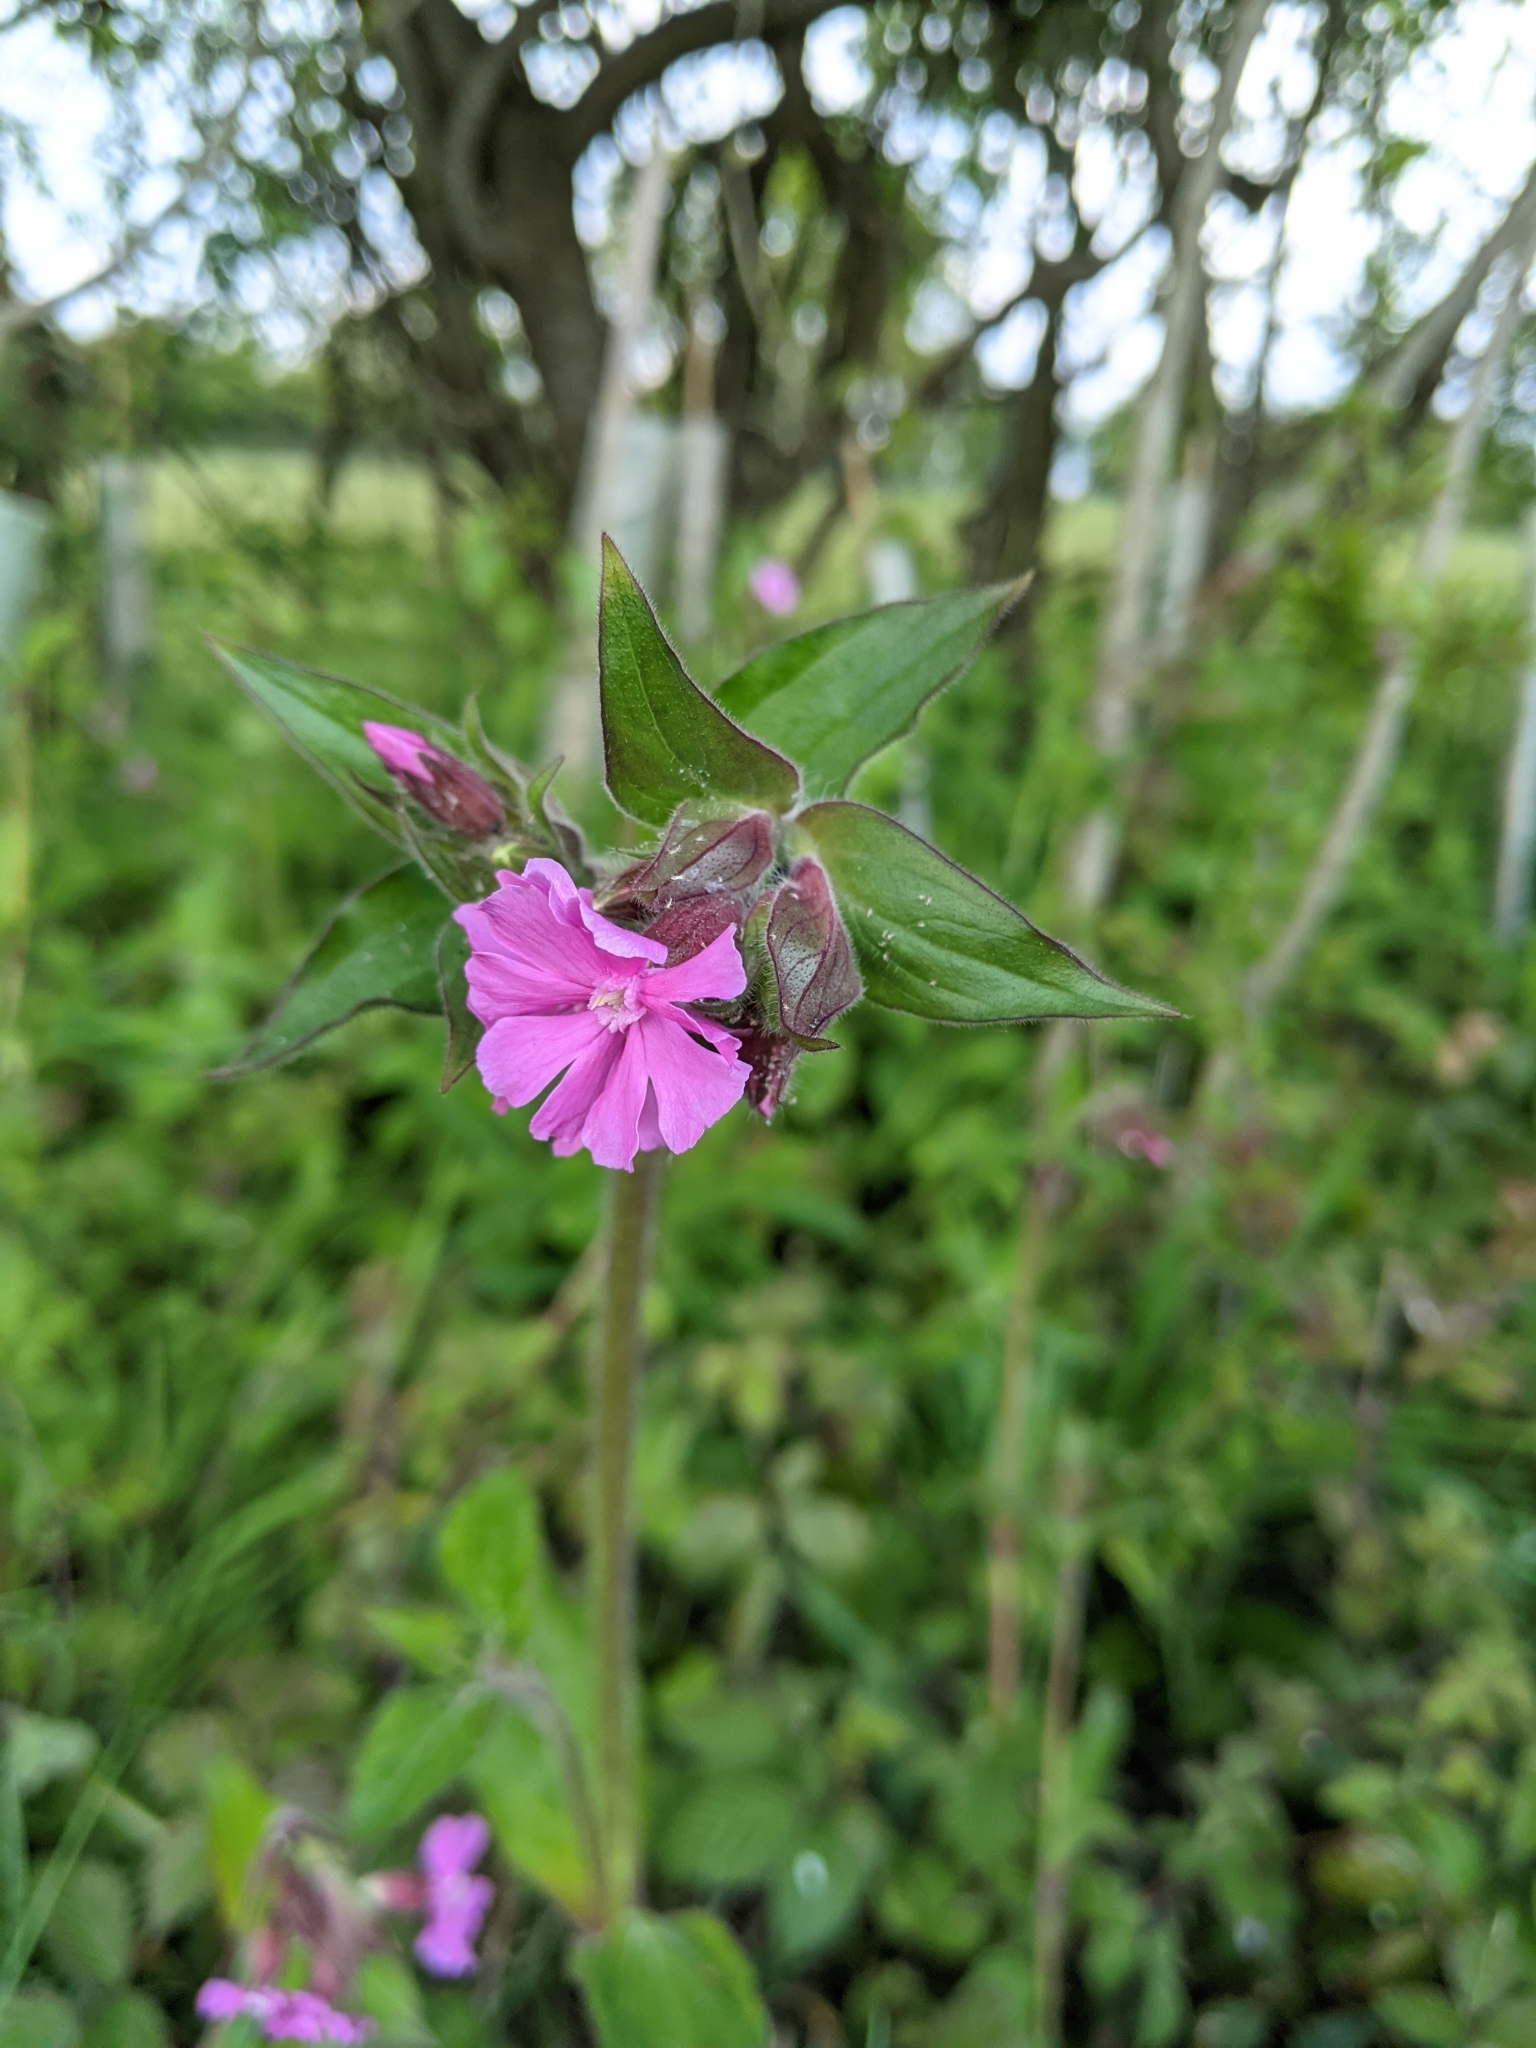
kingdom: Plantae
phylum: Tracheophyta
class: Magnoliopsida
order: Caryophyllales
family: Caryophyllaceae
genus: Silene
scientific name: Silene dioica
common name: Red campion
